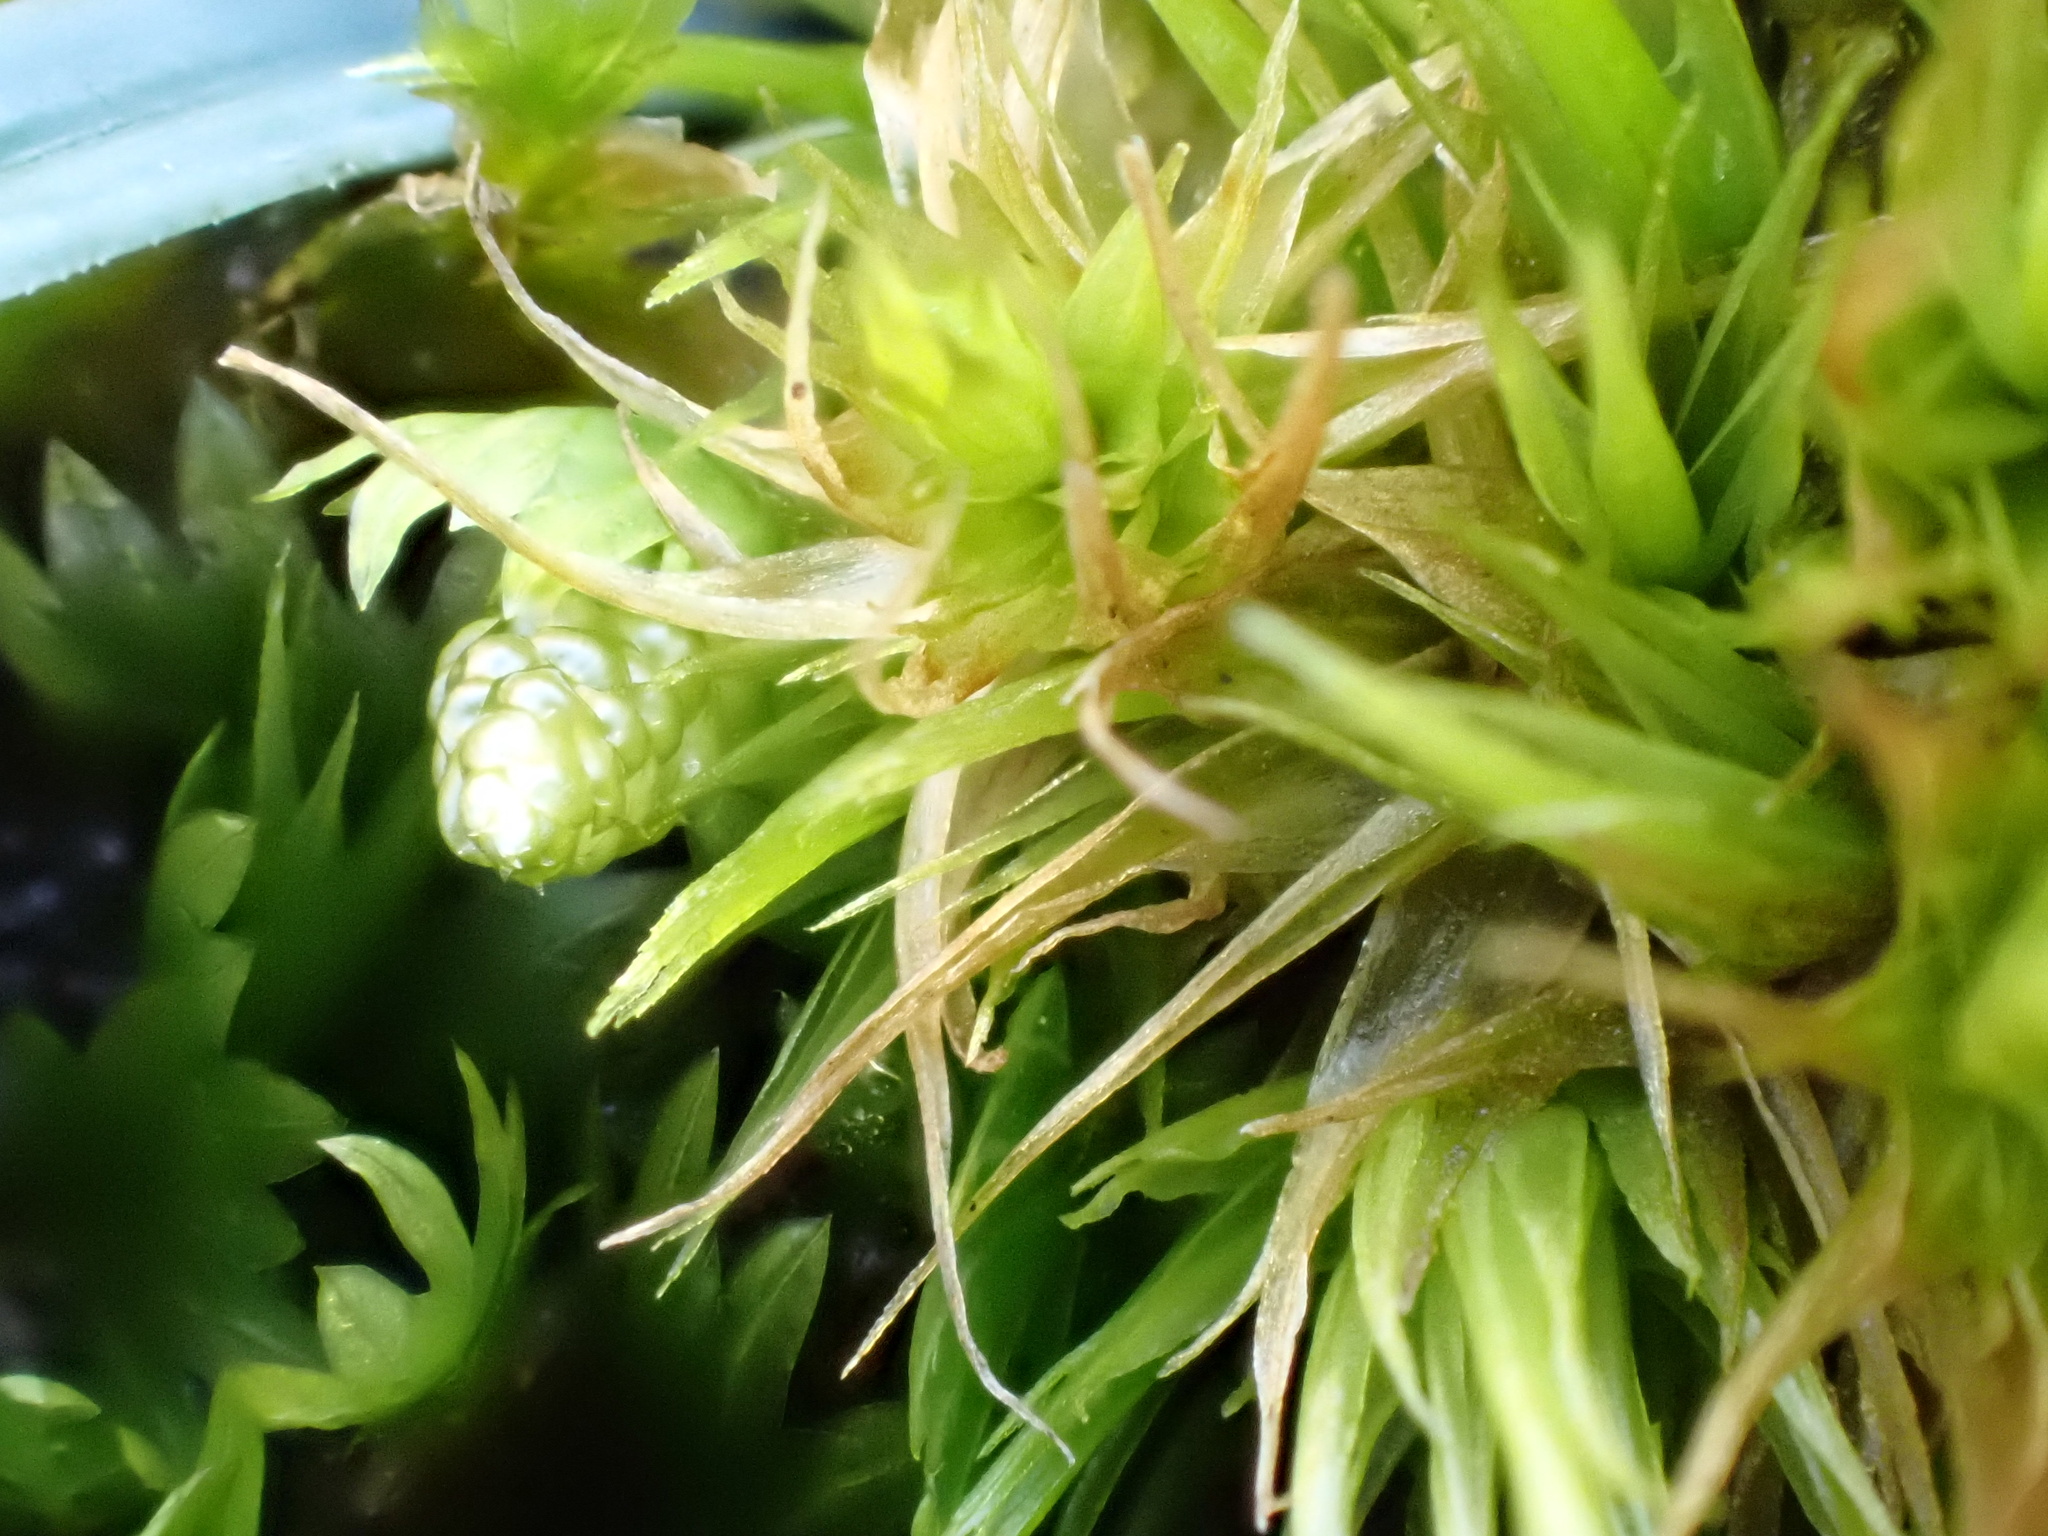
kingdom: Plantae
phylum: Bryophyta
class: Bryopsida
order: Dicranales
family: Dicranaceae
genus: Dicranum
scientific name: Dicranum scoparium
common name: Broom fork-moss
